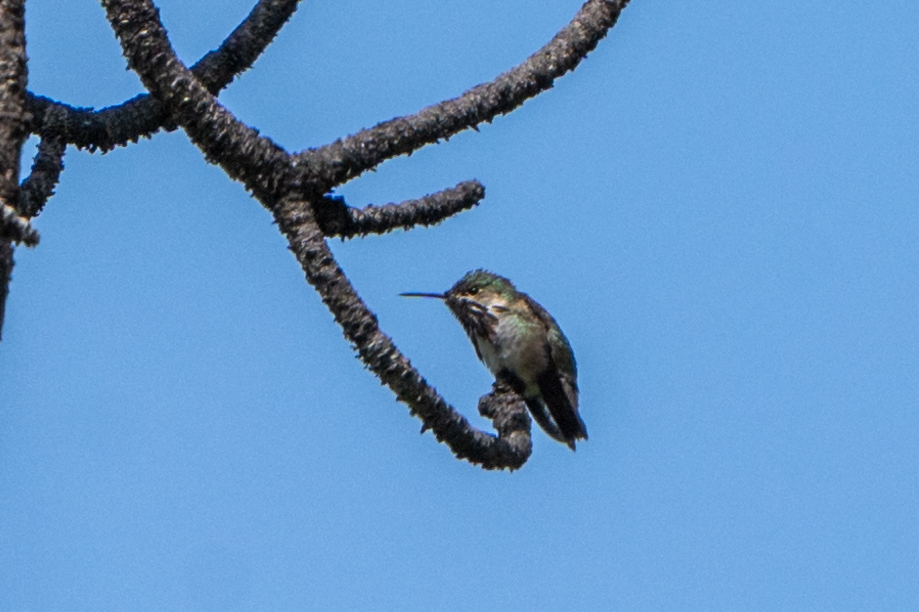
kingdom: Animalia
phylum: Chordata
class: Aves
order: Apodiformes
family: Trochilidae
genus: Selasphorus
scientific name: Selasphorus calliope
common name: Calliope hummingbird
